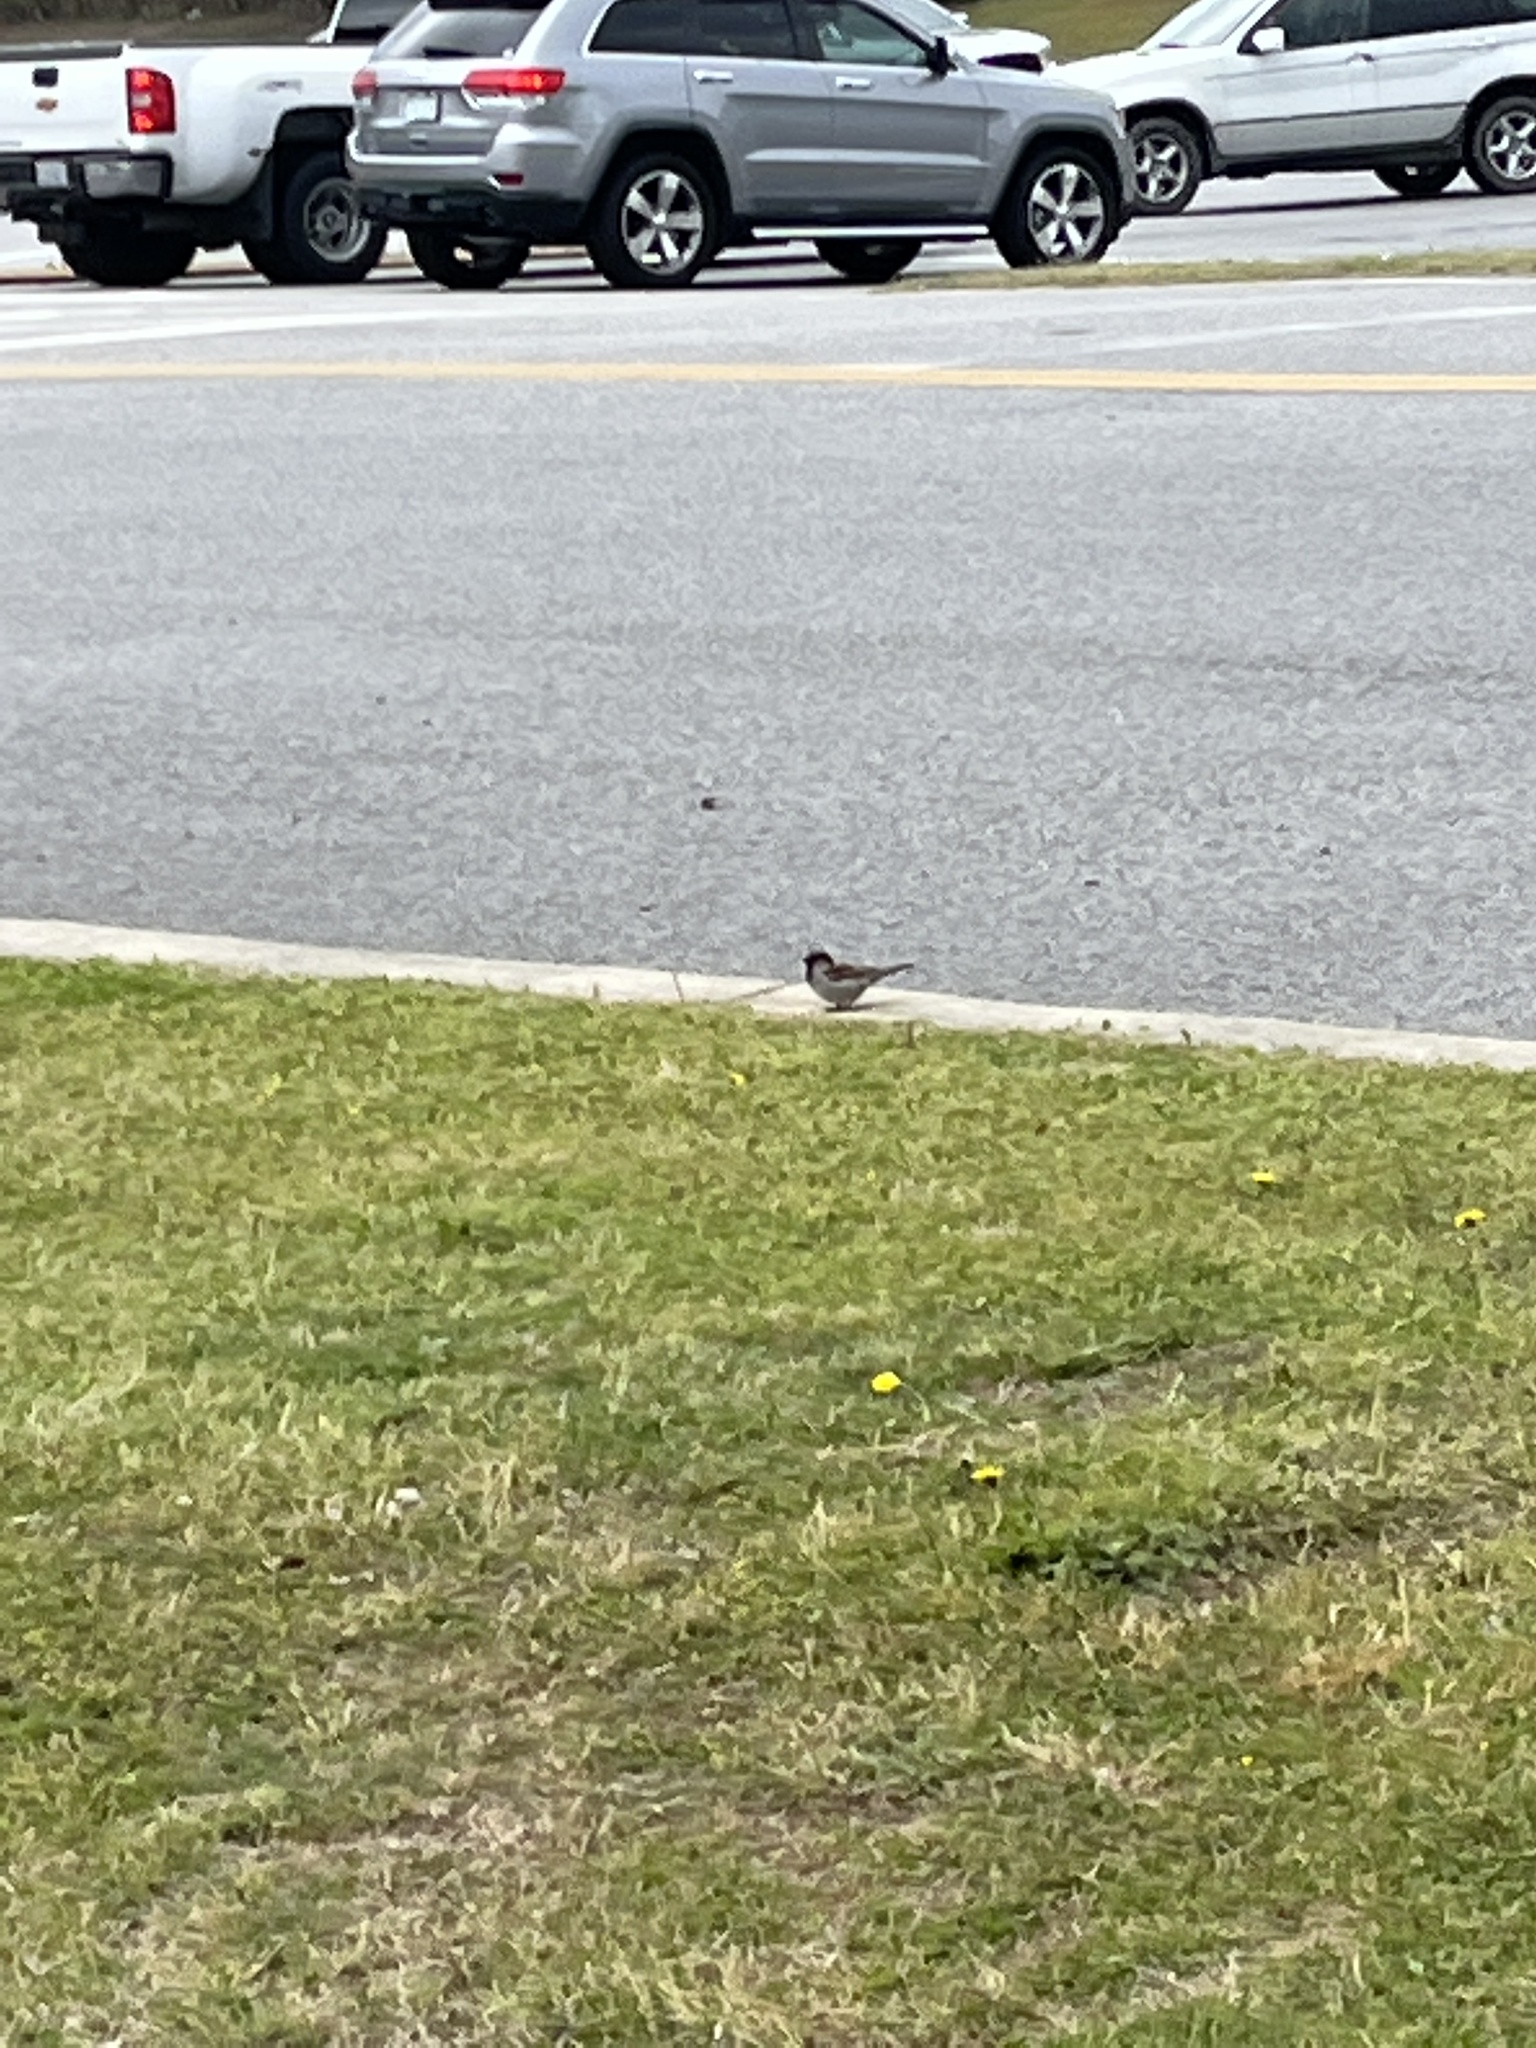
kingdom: Animalia
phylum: Chordata
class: Aves
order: Passeriformes
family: Passeridae
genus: Passer
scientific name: Passer domesticus
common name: House sparrow
